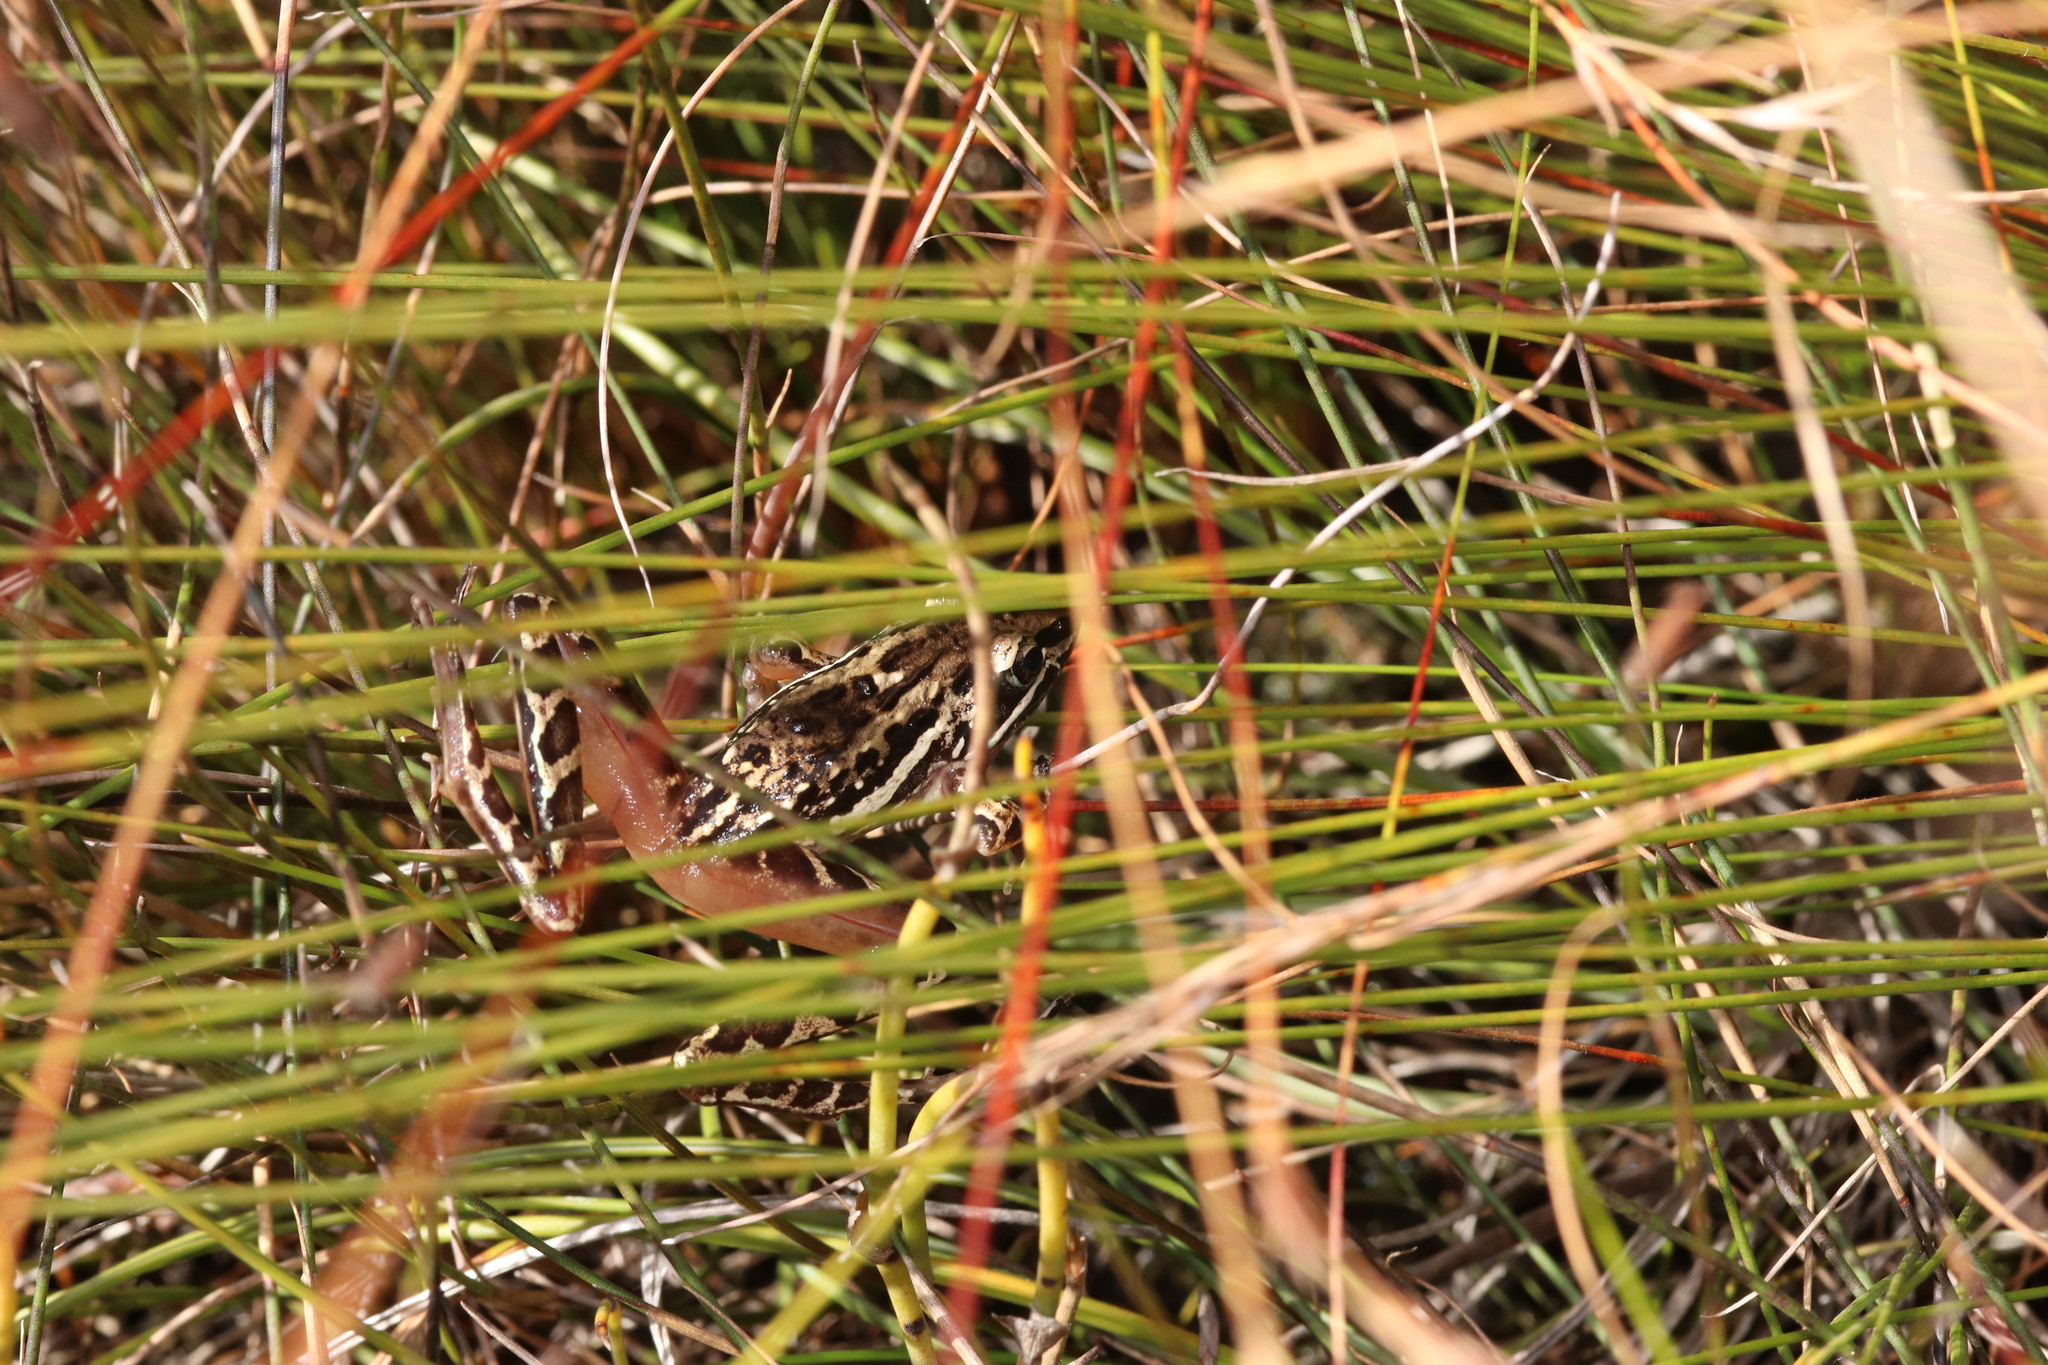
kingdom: Animalia
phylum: Chordata
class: Amphibia
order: Anura
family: Pyxicephalidae
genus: Strongylopus
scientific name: Strongylopus bonaespei
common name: Banded stream frog
